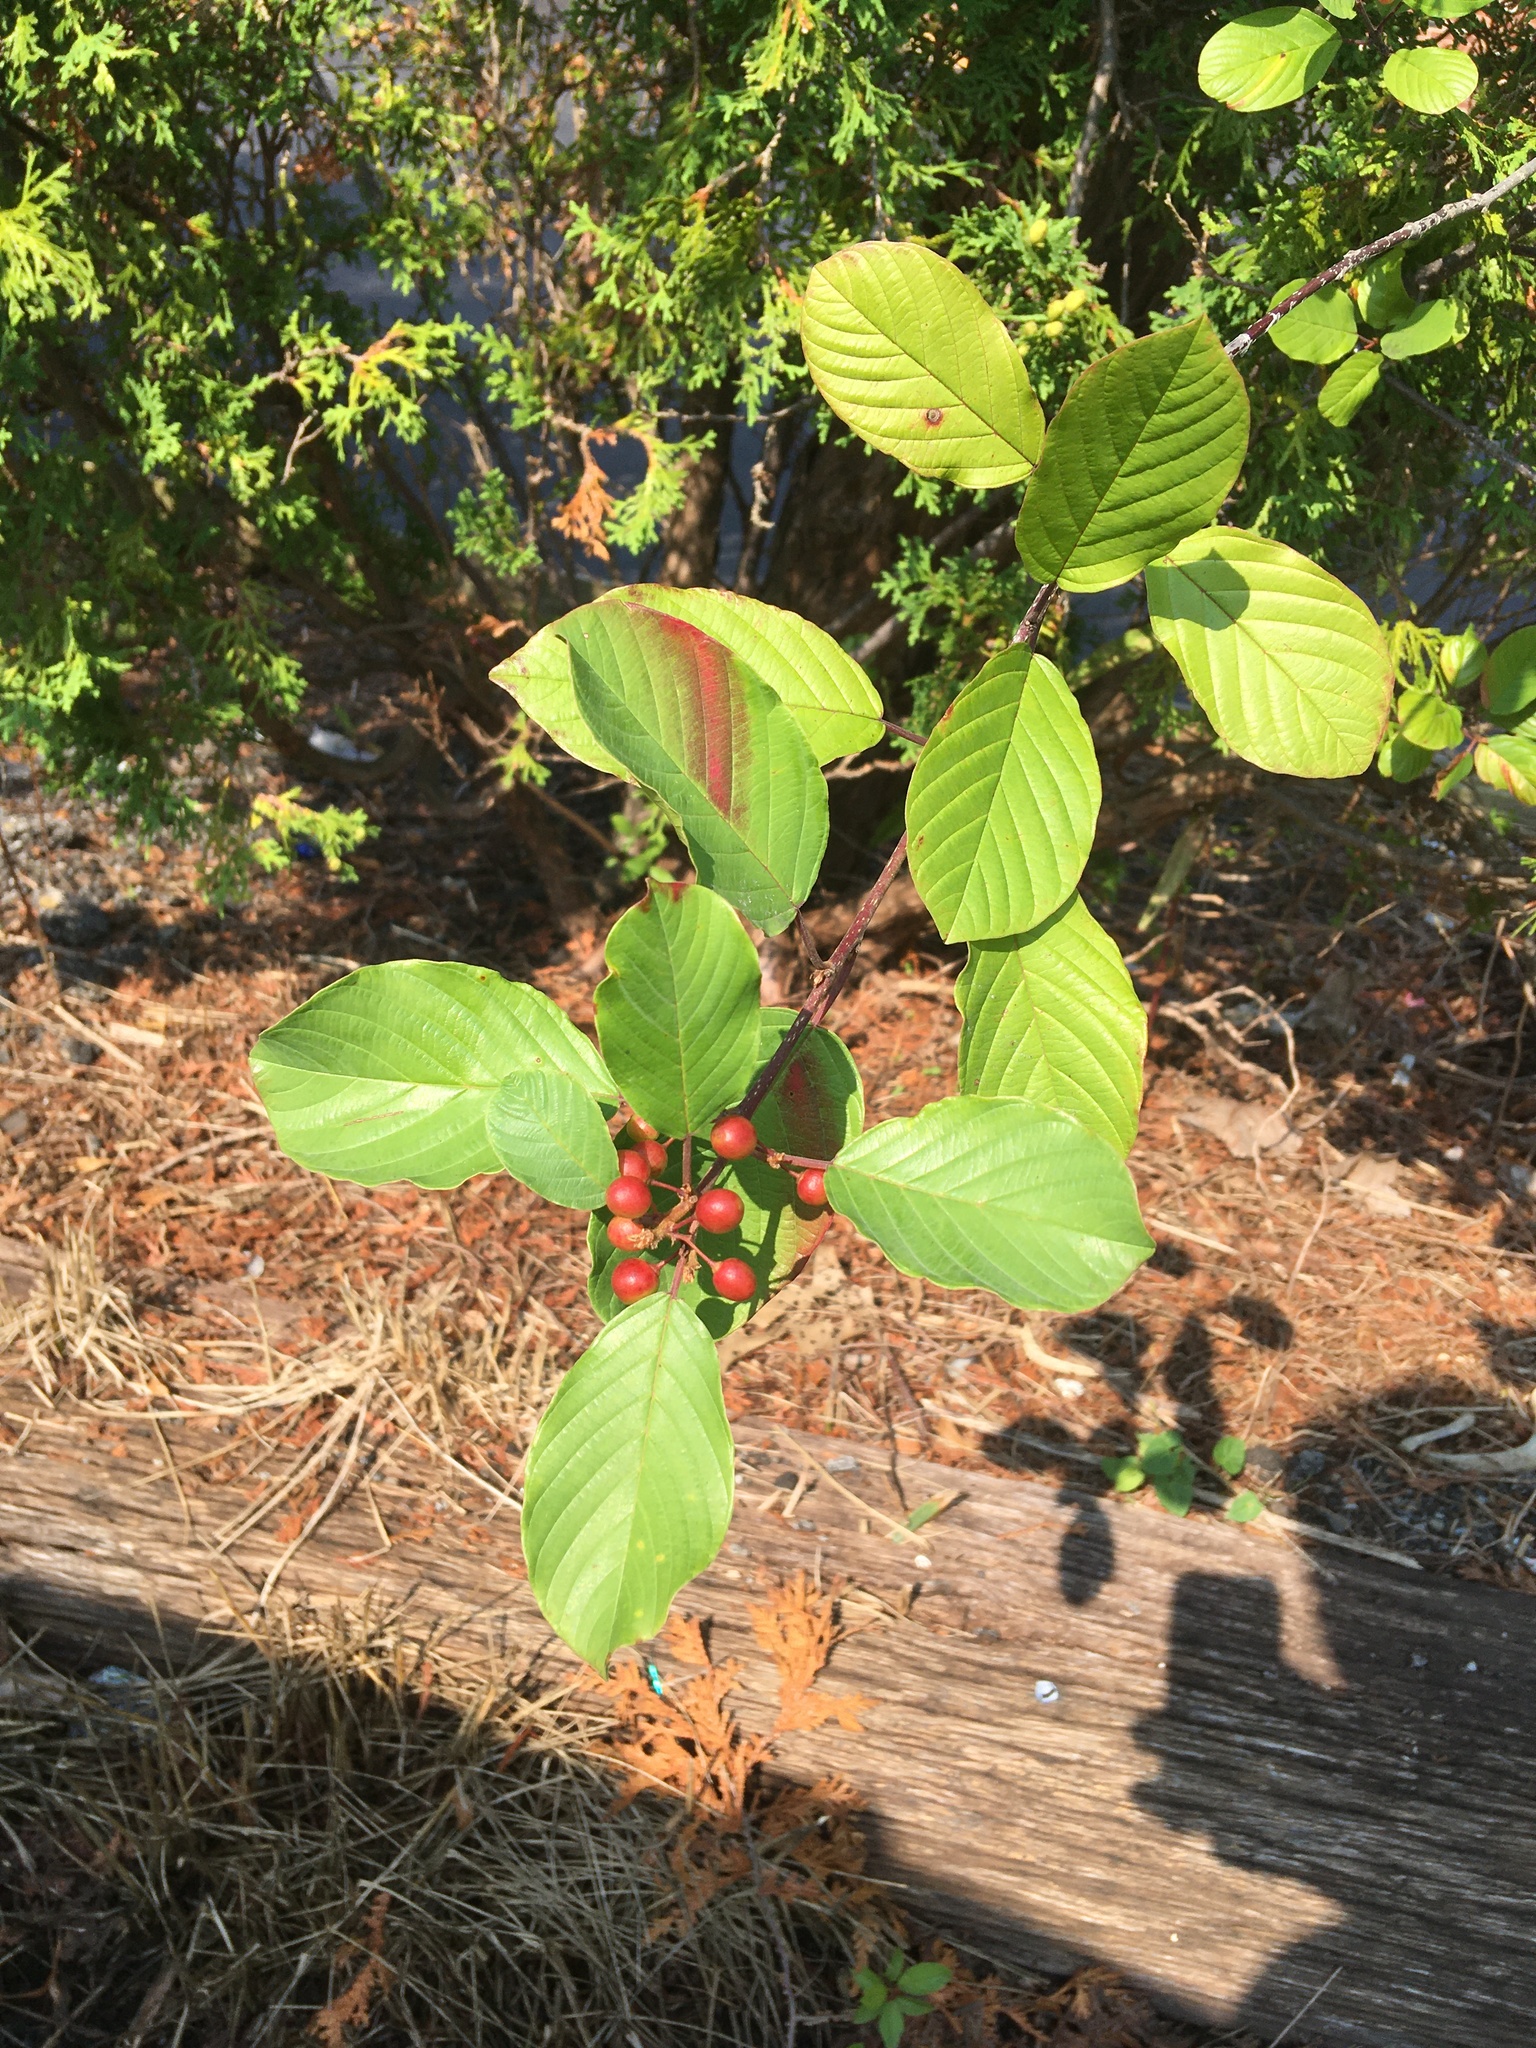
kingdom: Plantae
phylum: Tracheophyta
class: Magnoliopsida
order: Rosales
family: Rhamnaceae
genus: Frangula
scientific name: Frangula alnus
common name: Alder buckthorn
